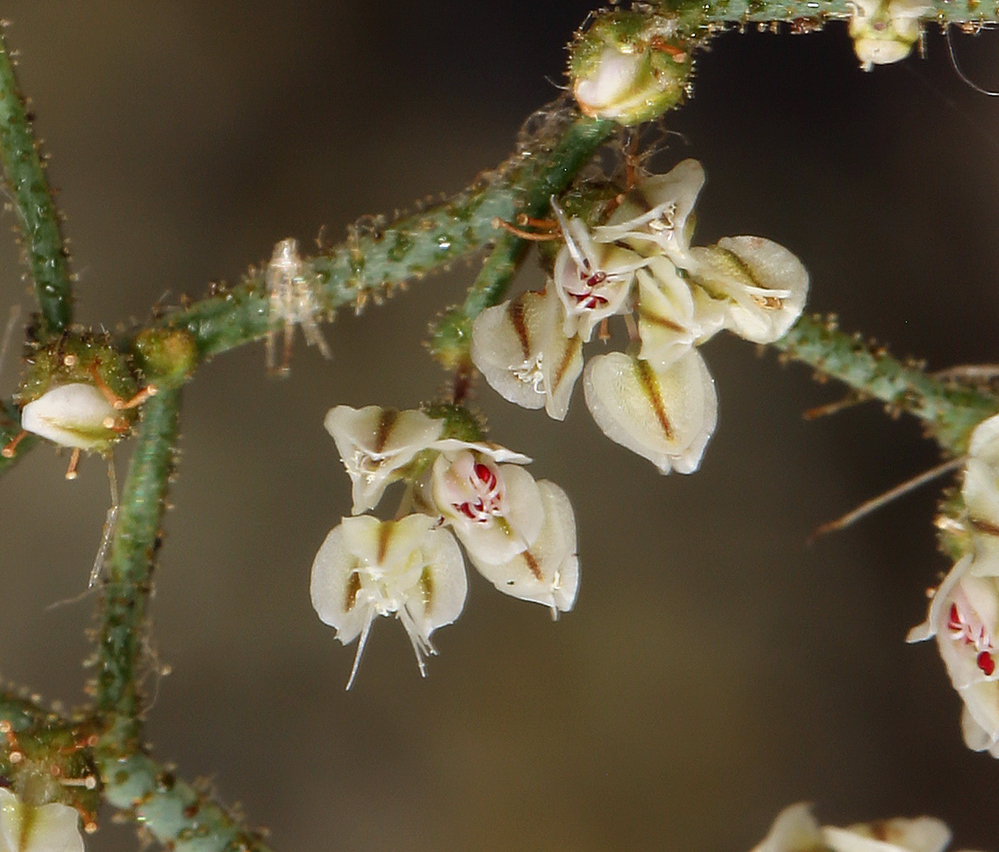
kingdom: Plantae
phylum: Tracheophyta
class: Magnoliopsida
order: Caryophyllales
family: Polygonaceae
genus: Eriogonum
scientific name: Eriogonum brachypodum
